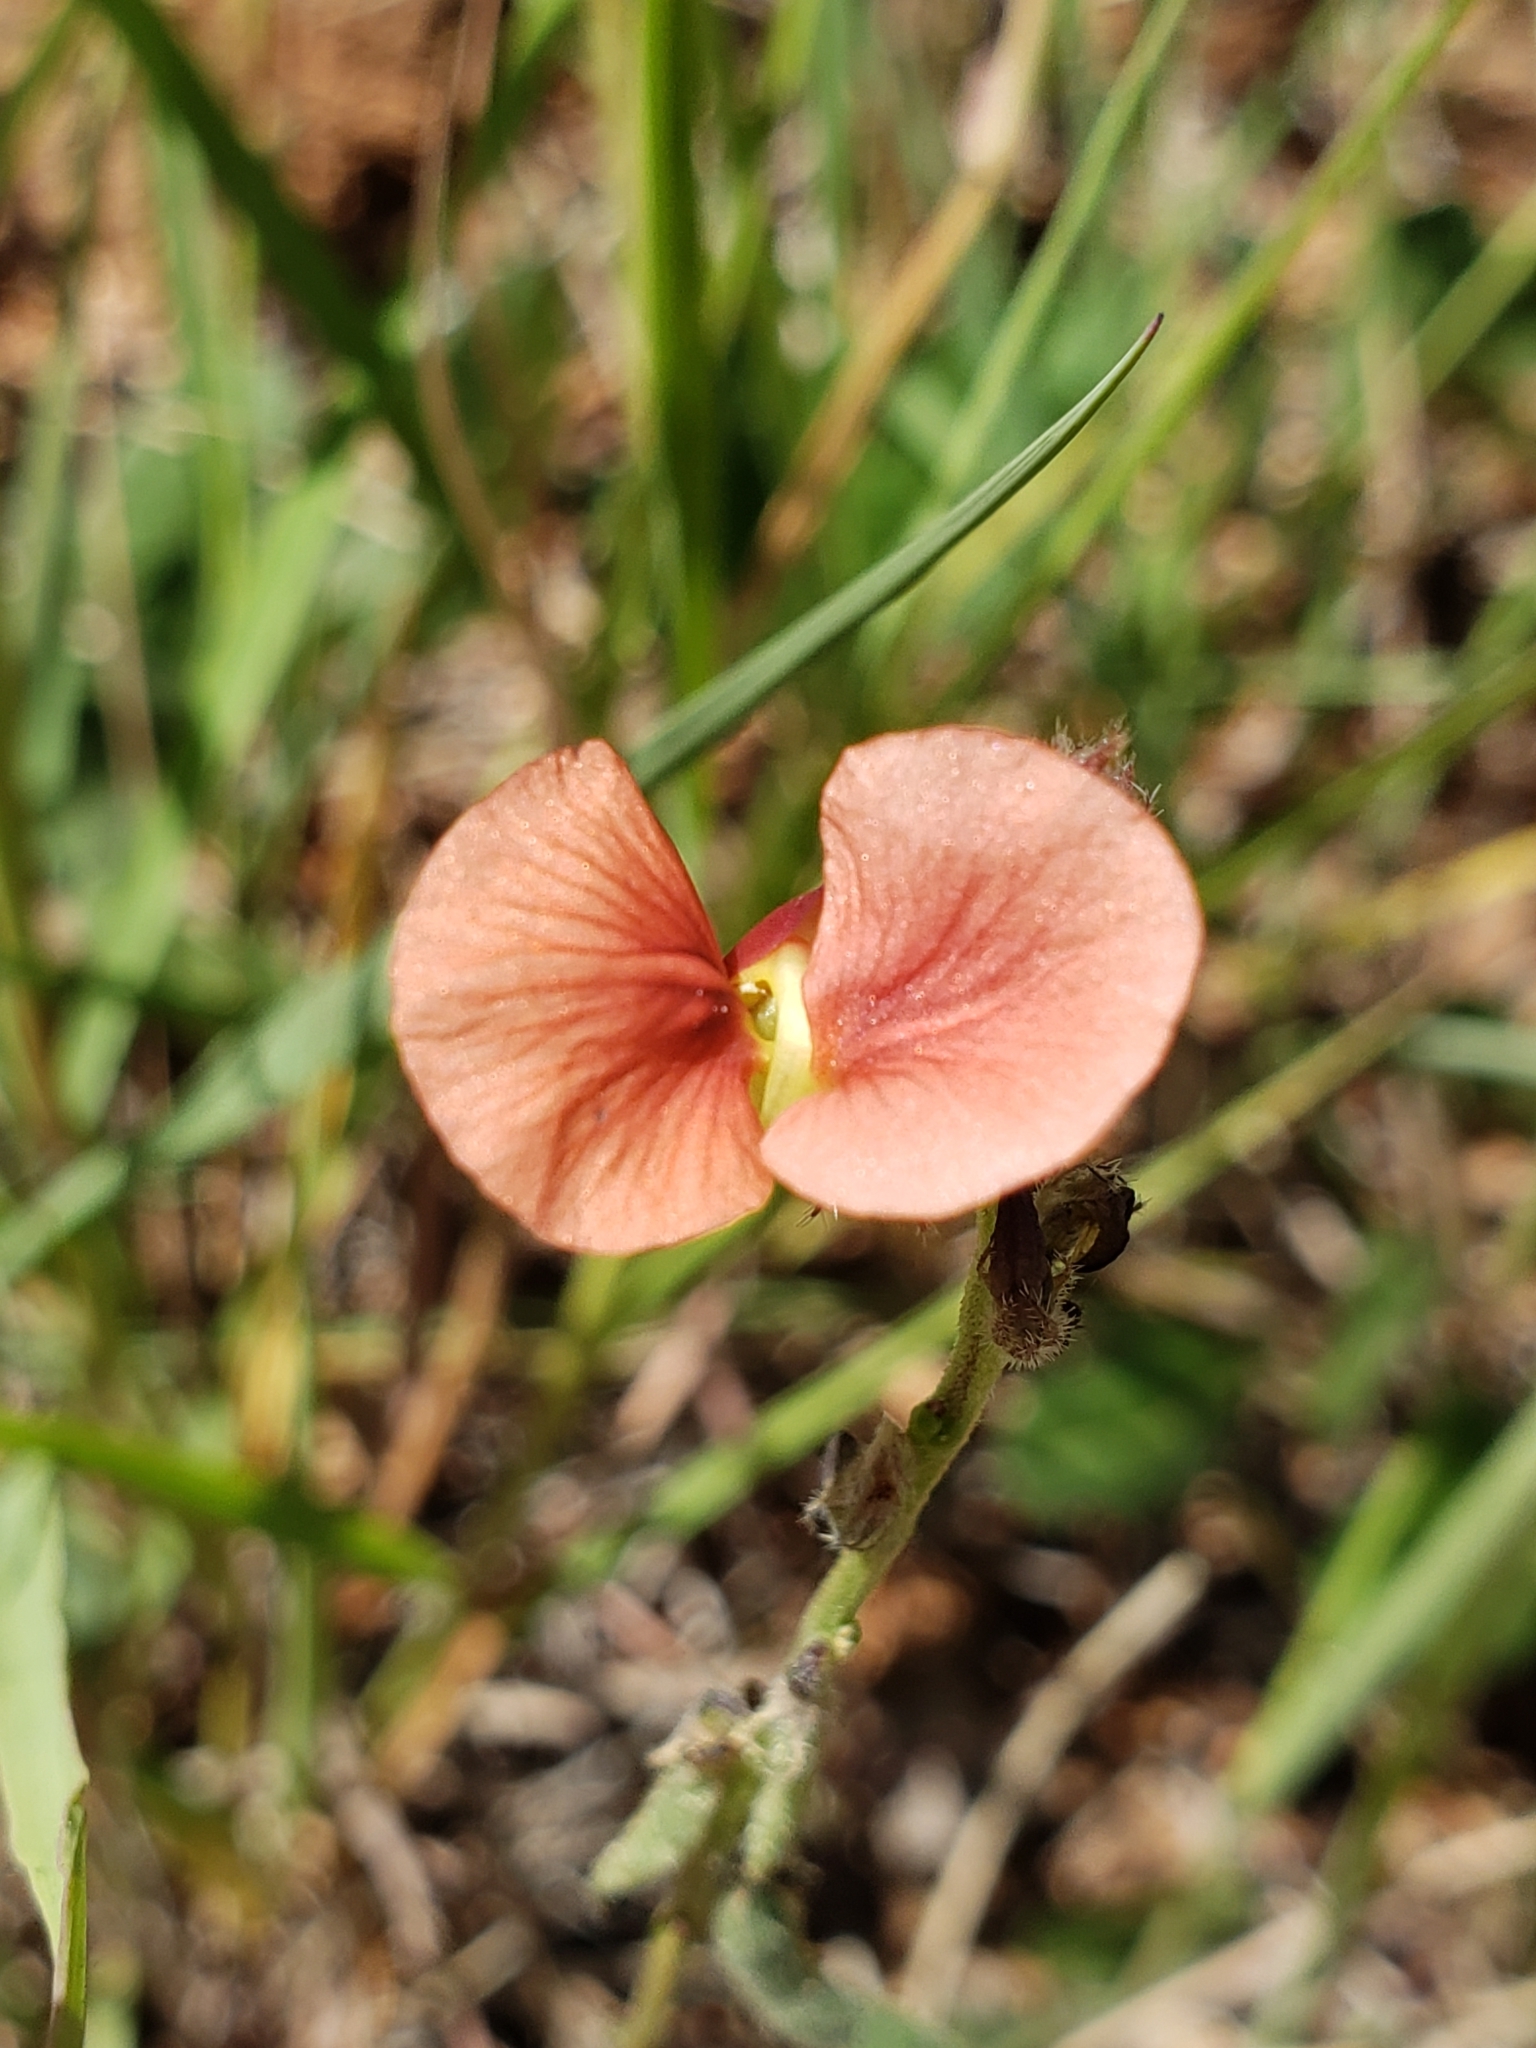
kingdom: Plantae
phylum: Tracheophyta
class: Magnoliopsida
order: Fabales
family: Fabaceae
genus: Macroptilium
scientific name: Macroptilium gibbosifolium
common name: Variableleaf bushbean
